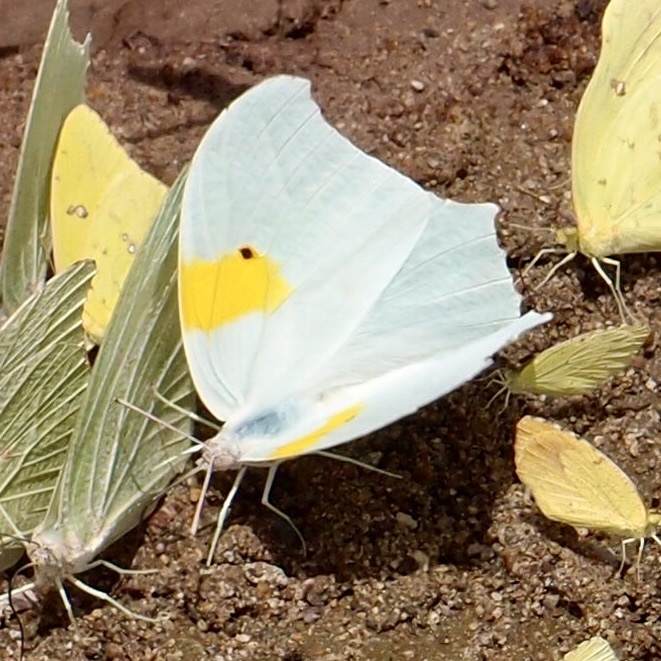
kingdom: Animalia
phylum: Arthropoda
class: Insecta
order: Lepidoptera
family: Pieridae
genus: Anteos
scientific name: Anteos clorinde
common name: White angled sulphur
